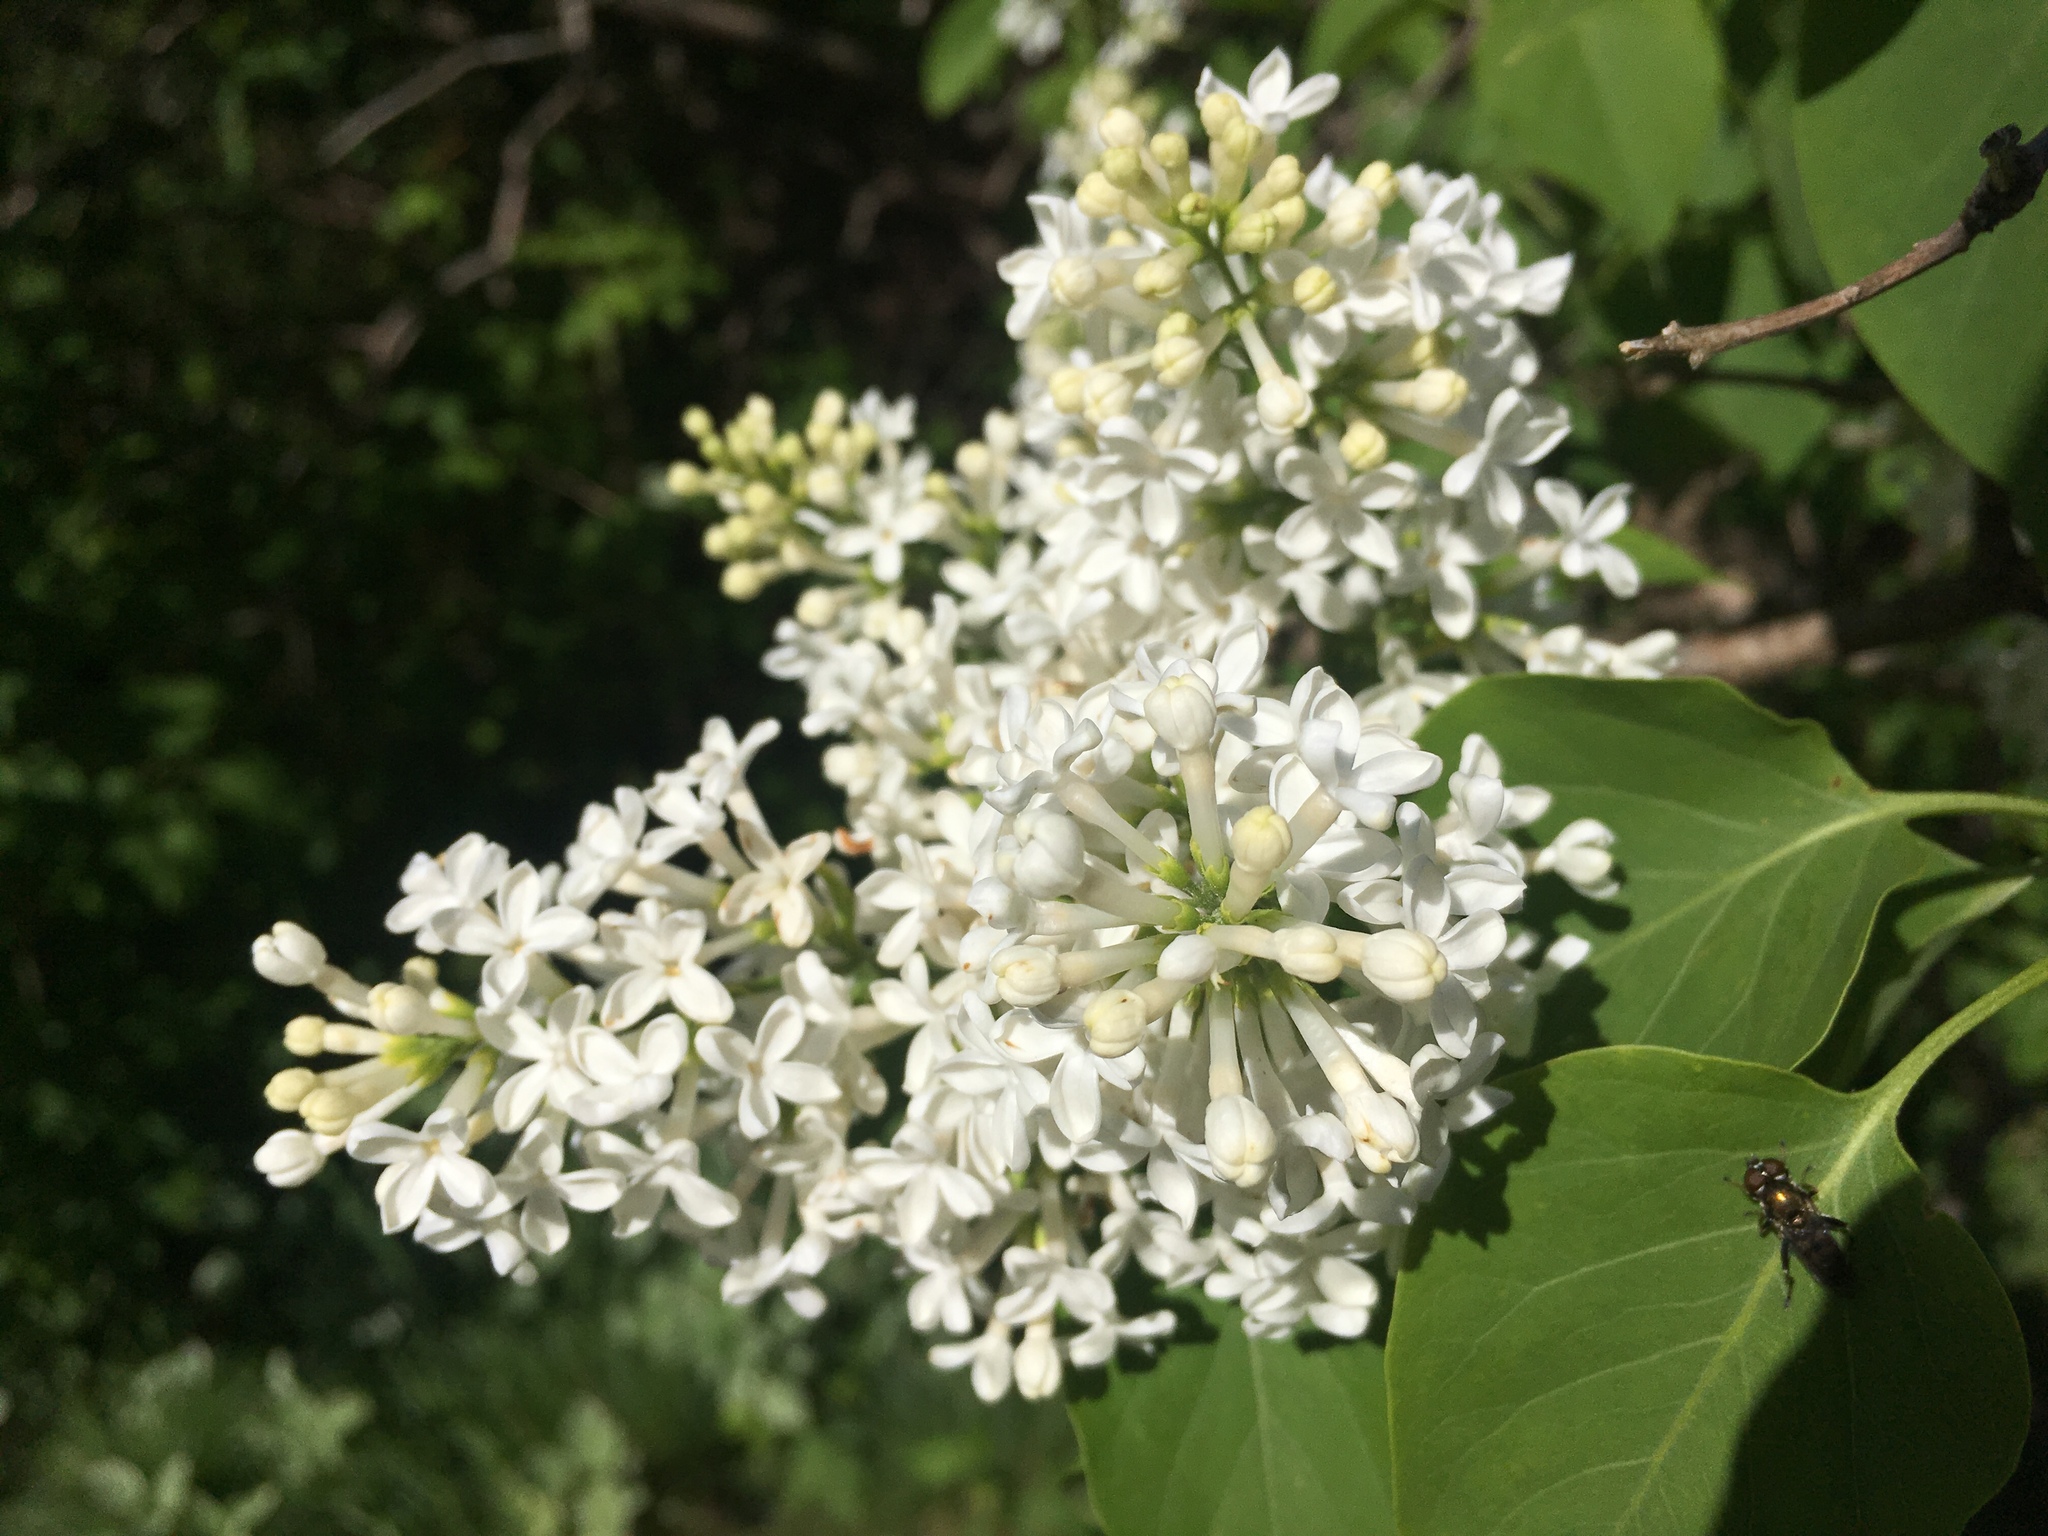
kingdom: Plantae
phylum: Tracheophyta
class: Magnoliopsida
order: Lamiales
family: Oleaceae
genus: Syringa
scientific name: Syringa vulgaris
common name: Common lilac
